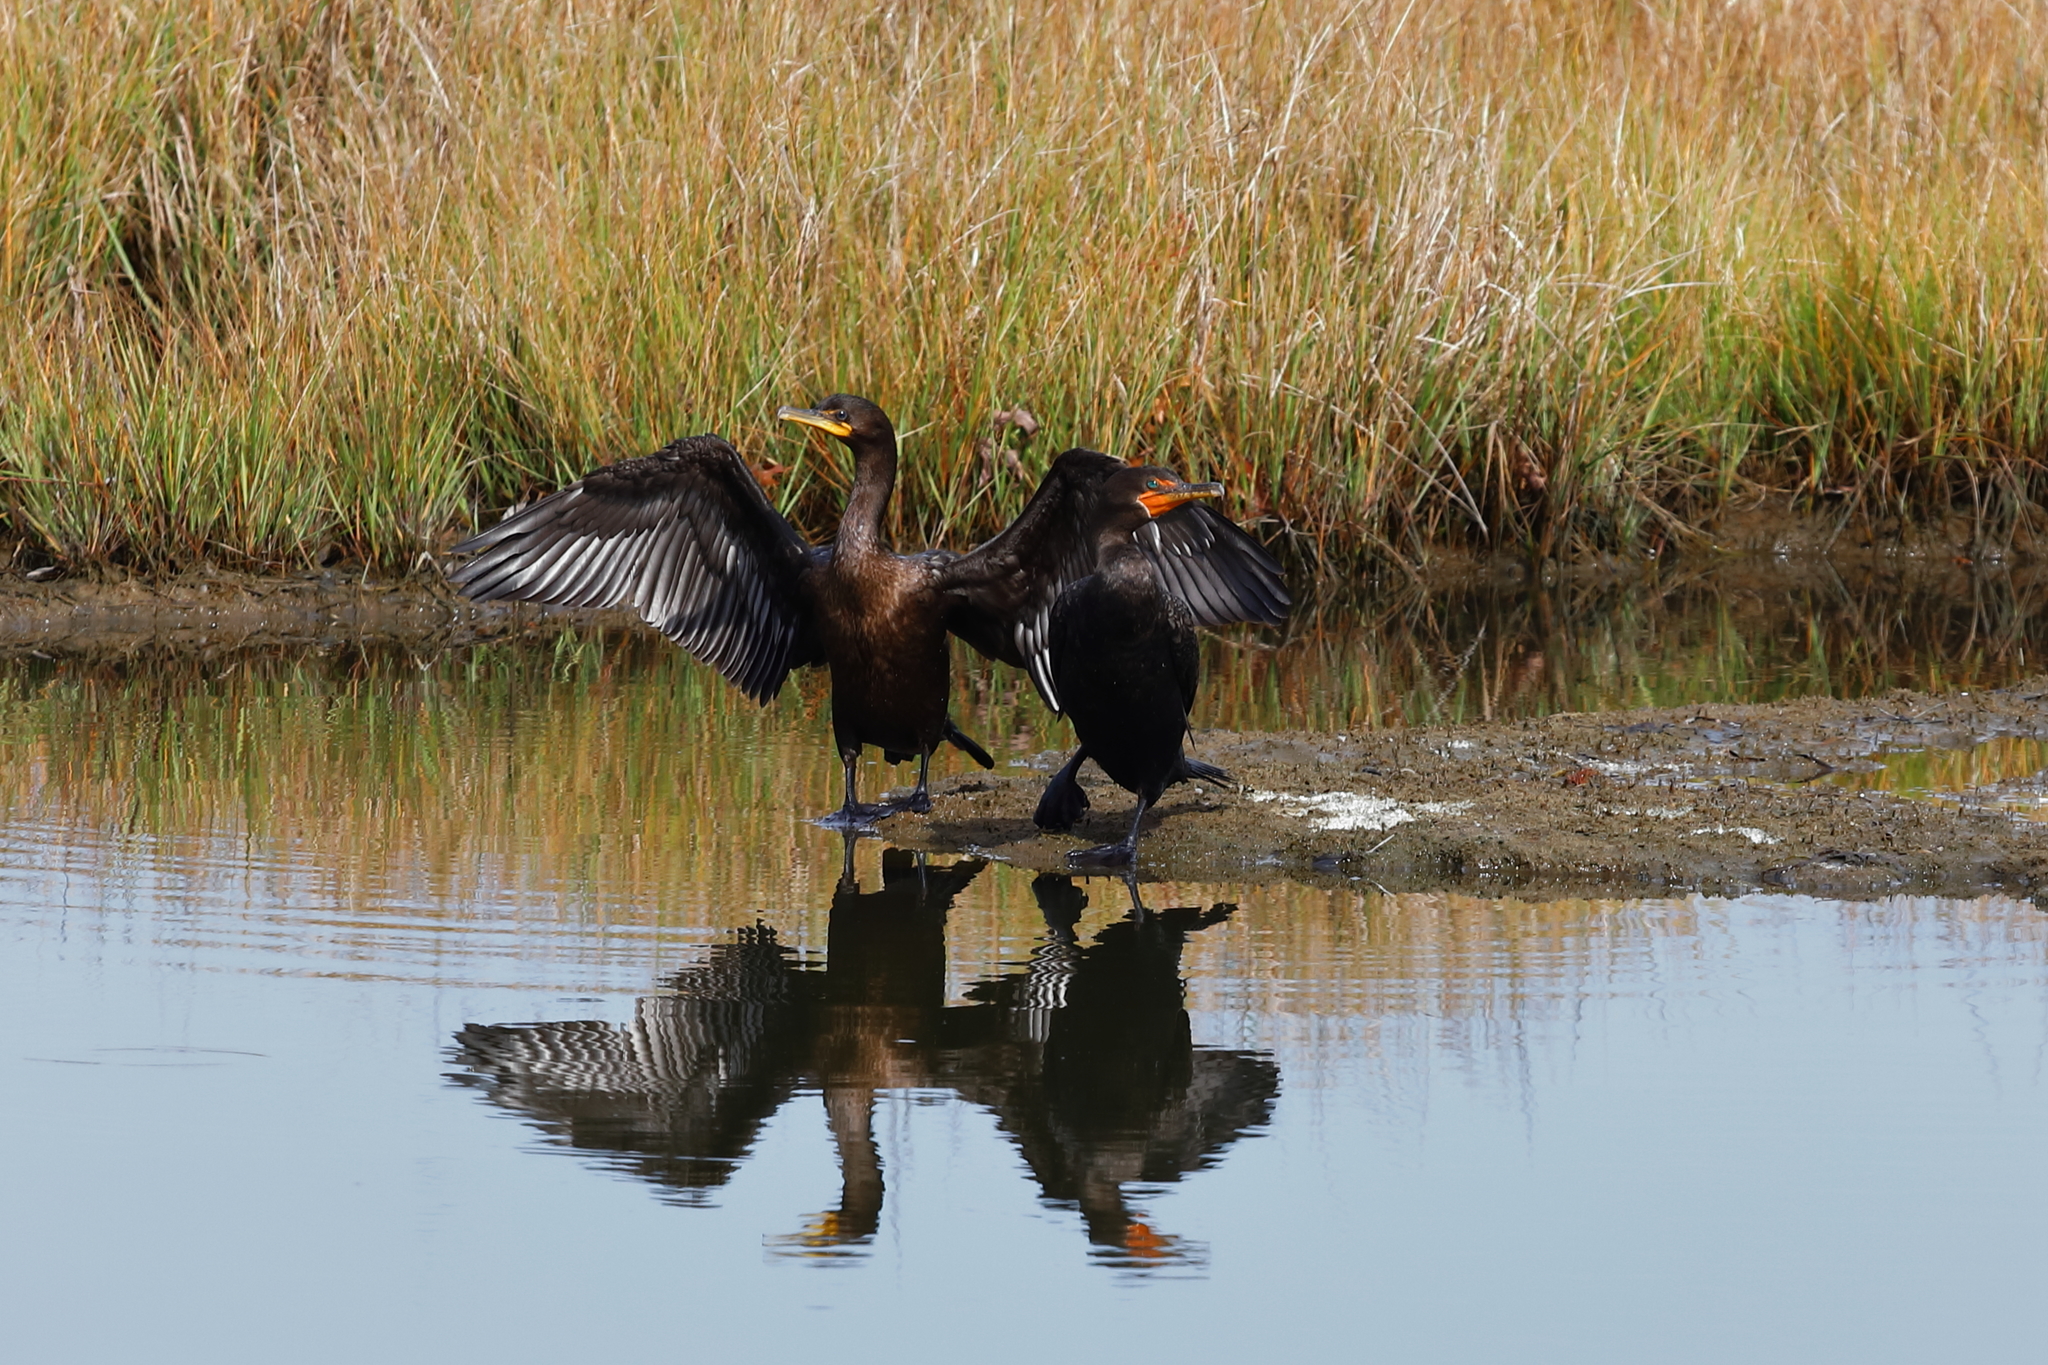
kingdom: Animalia
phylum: Chordata
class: Aves
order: Suliformes
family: Phalacrocoracidae
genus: Phalacrocorax
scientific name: Phalacrocorax auritus
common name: Double-crested cormorant
